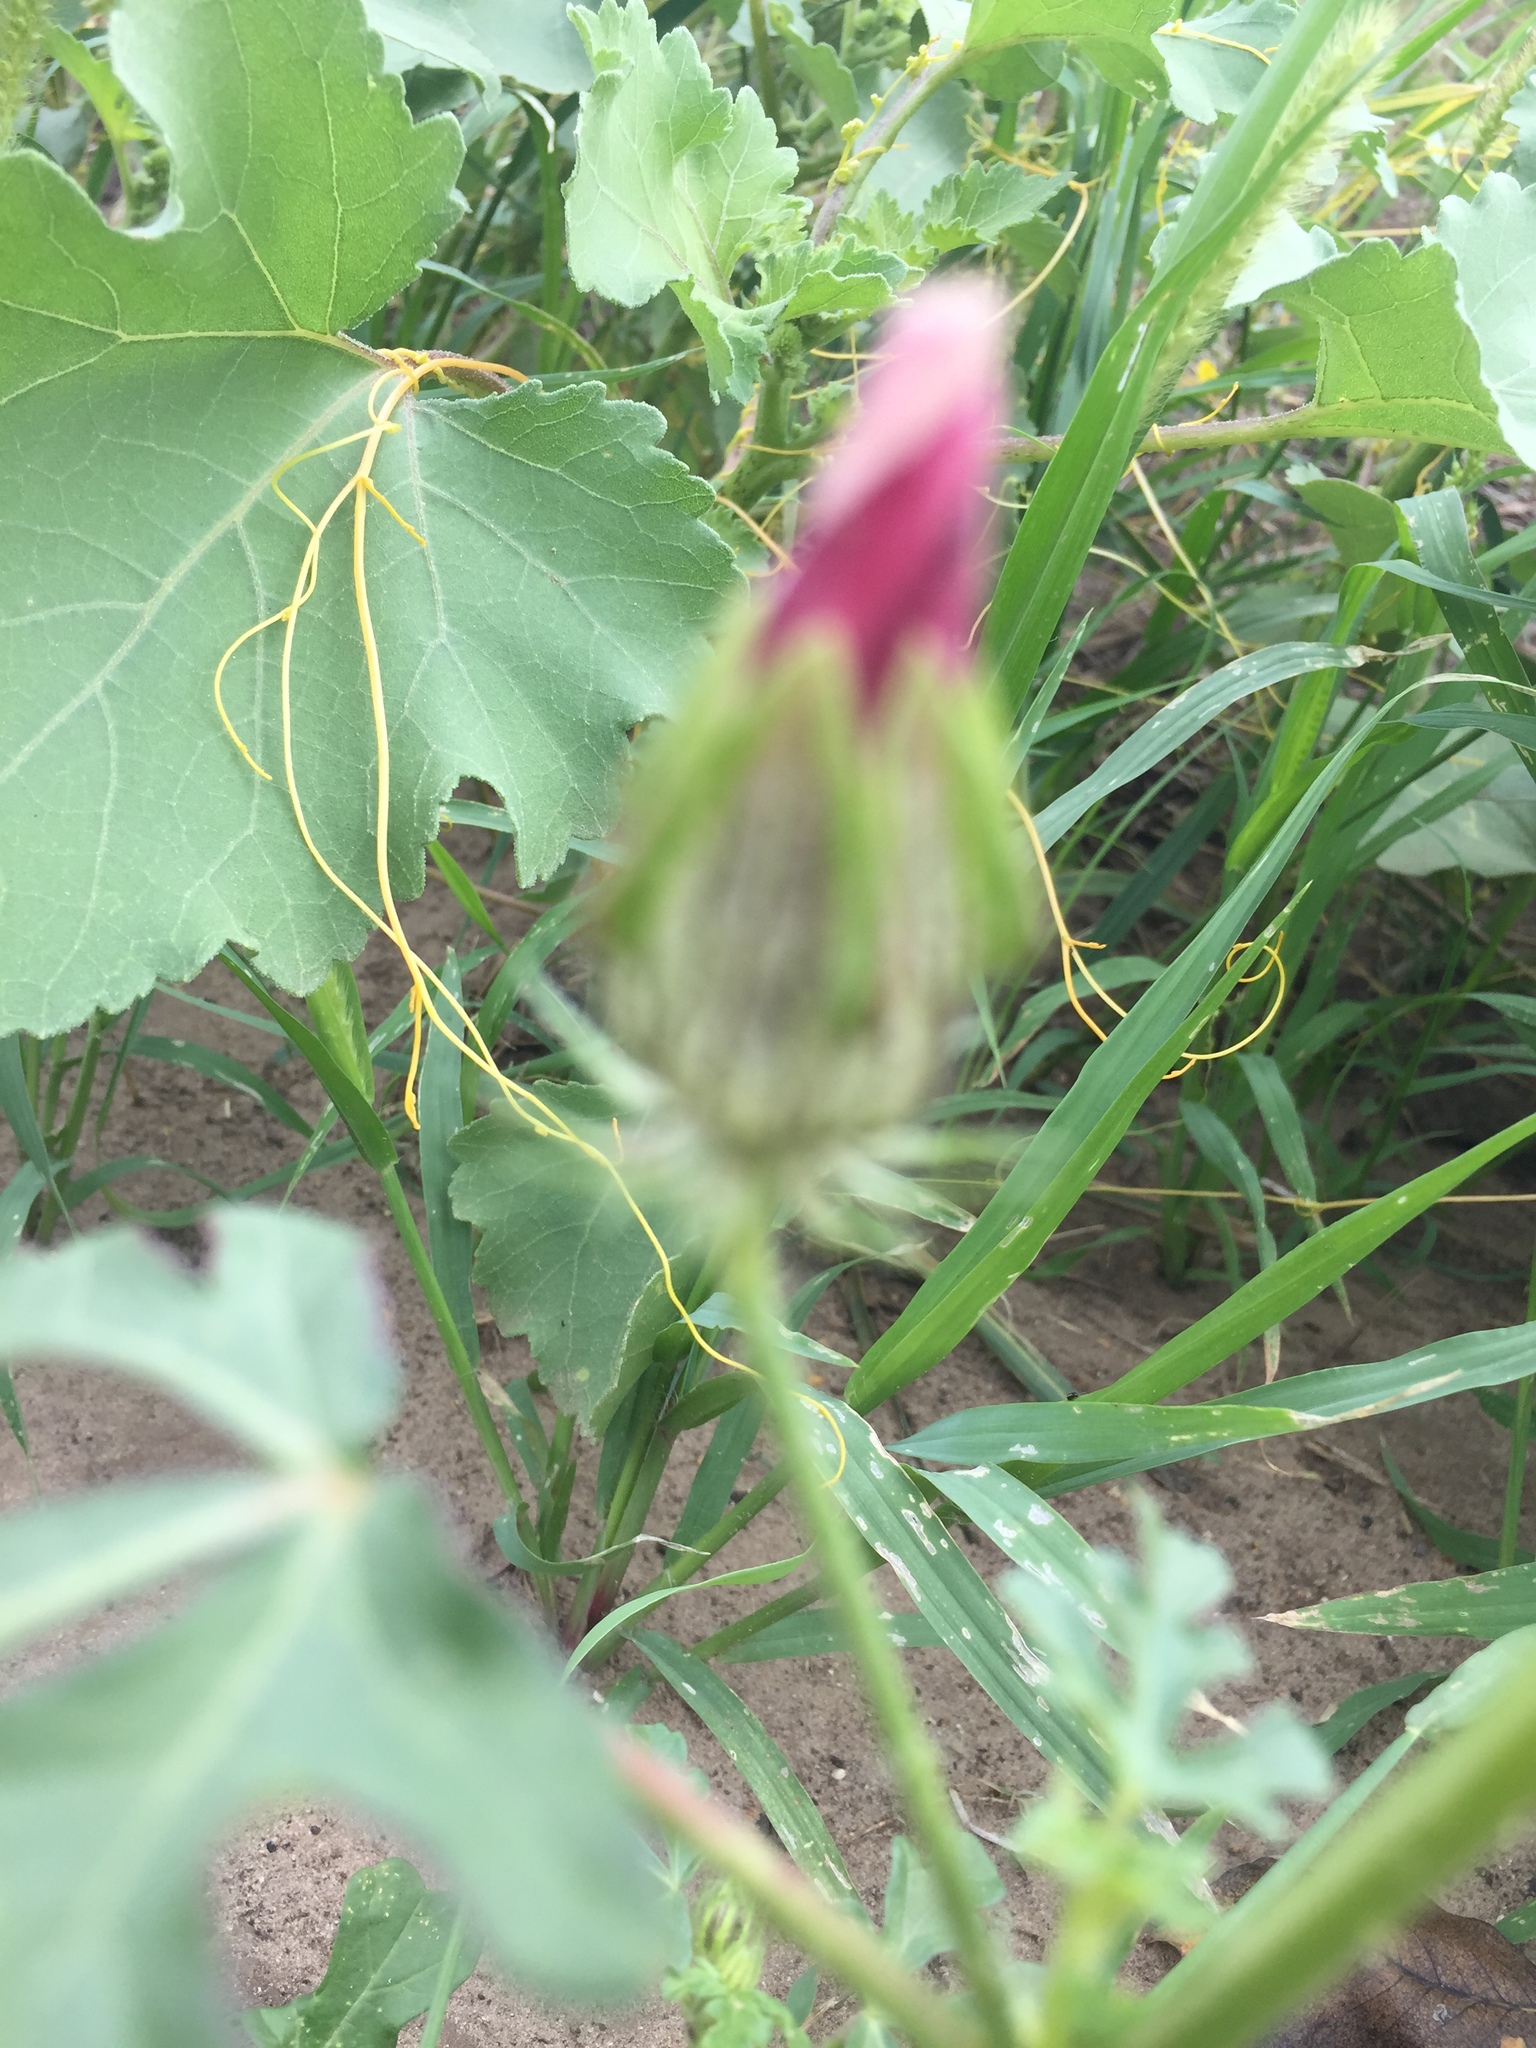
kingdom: Plantae
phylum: Tracheophyta
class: Magnoliopsida
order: Malvales
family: Malvaceae
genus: Hibiscus
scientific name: Hibiscus trionum
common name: Bladder ketmia
